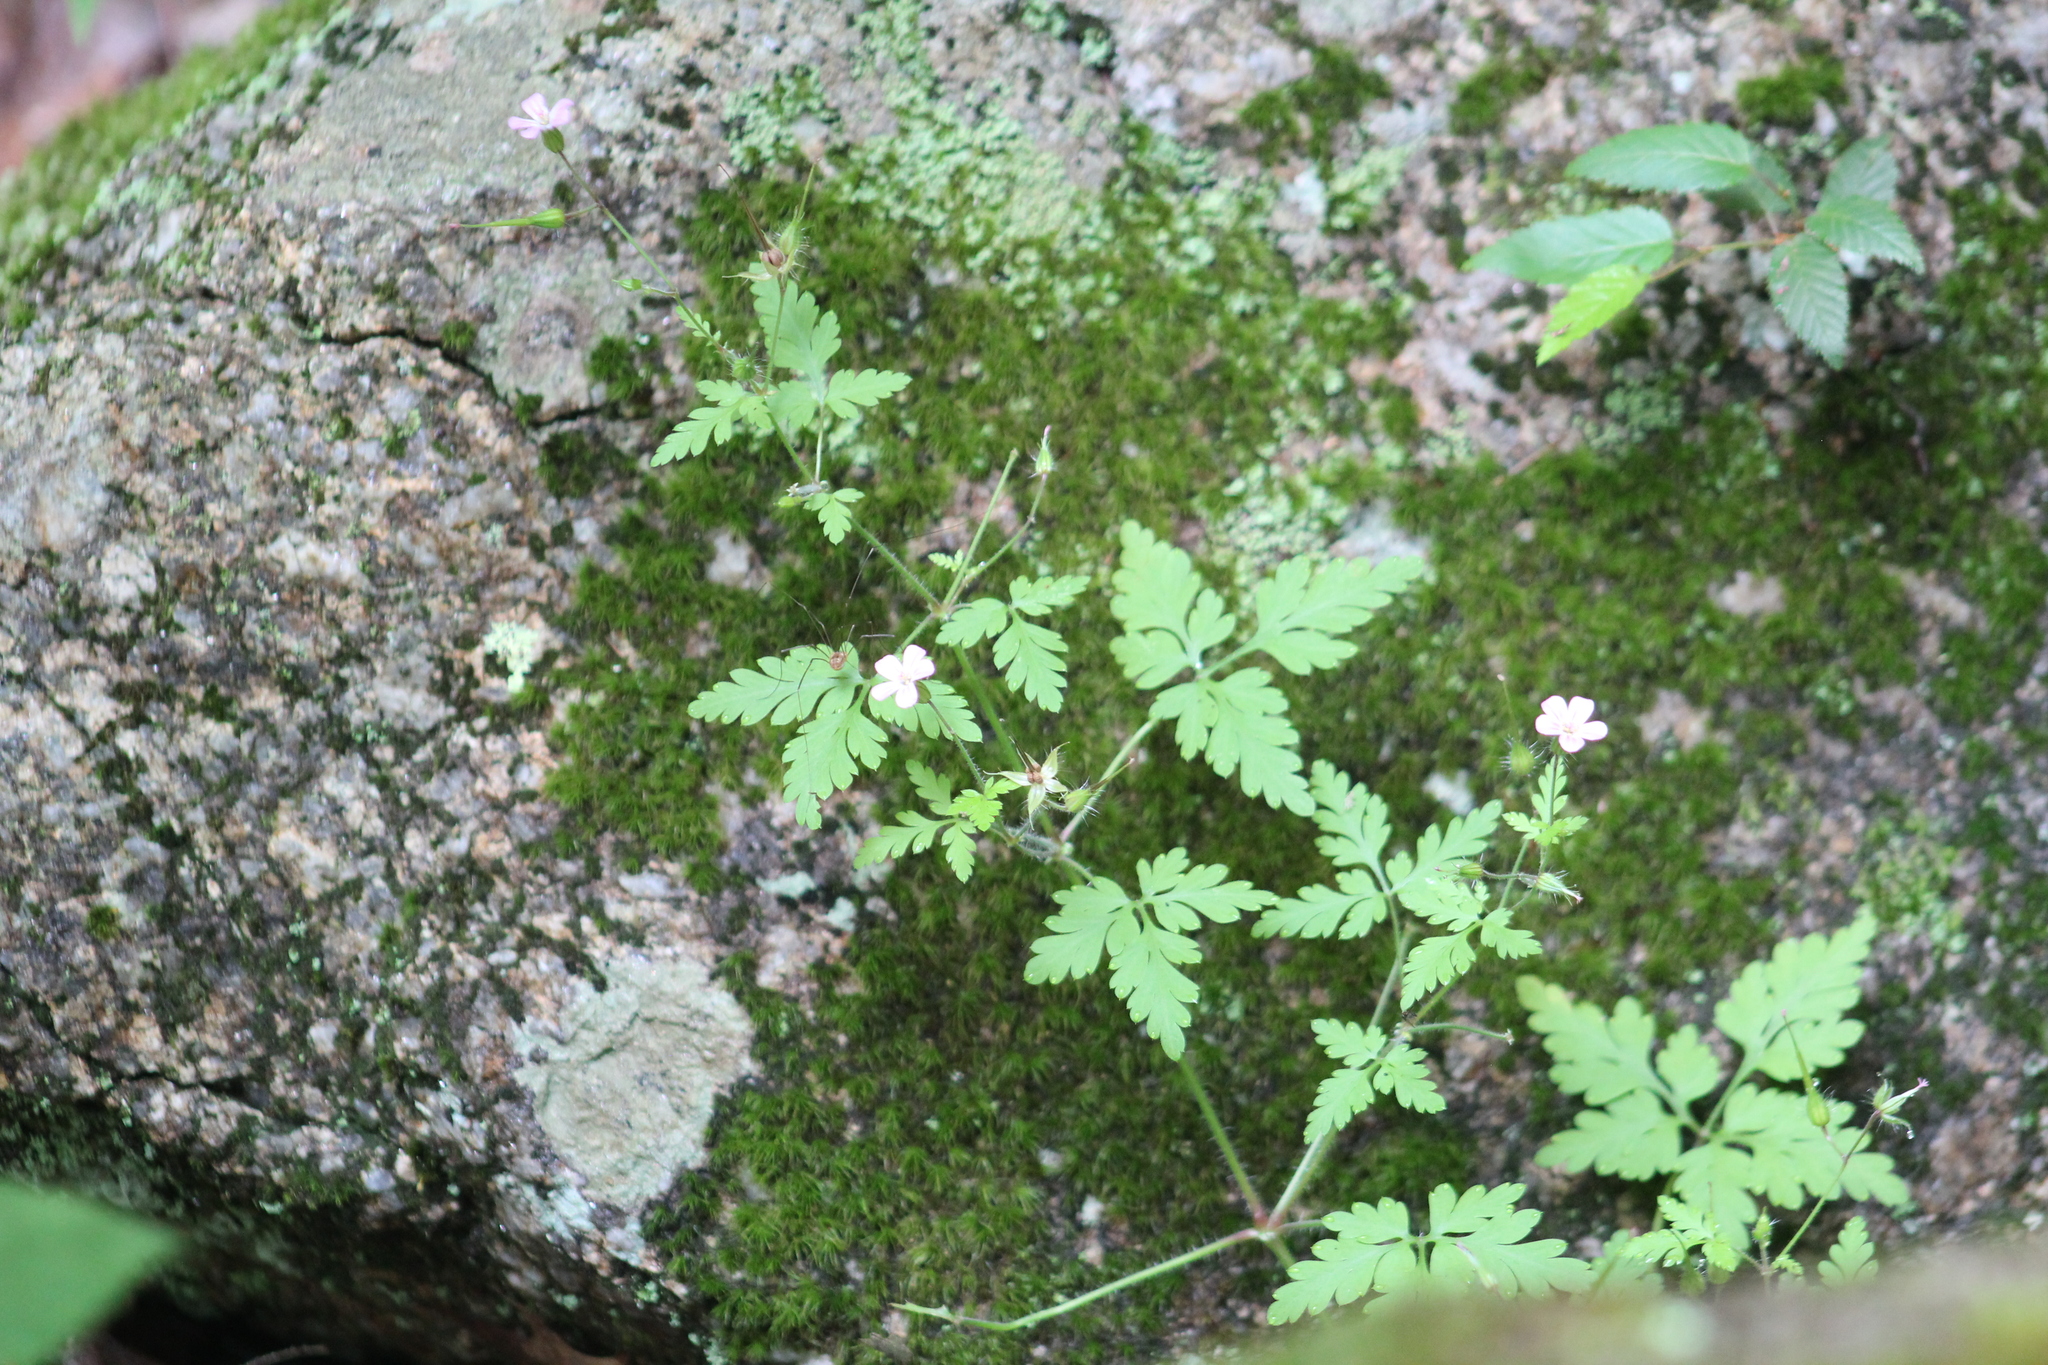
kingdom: Plantae
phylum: Tracheophyta
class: Magnoliopsida
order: Geraniales
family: Geraniaceae
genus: Geranium
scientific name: Geranium robertianum
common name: Herb-robert
